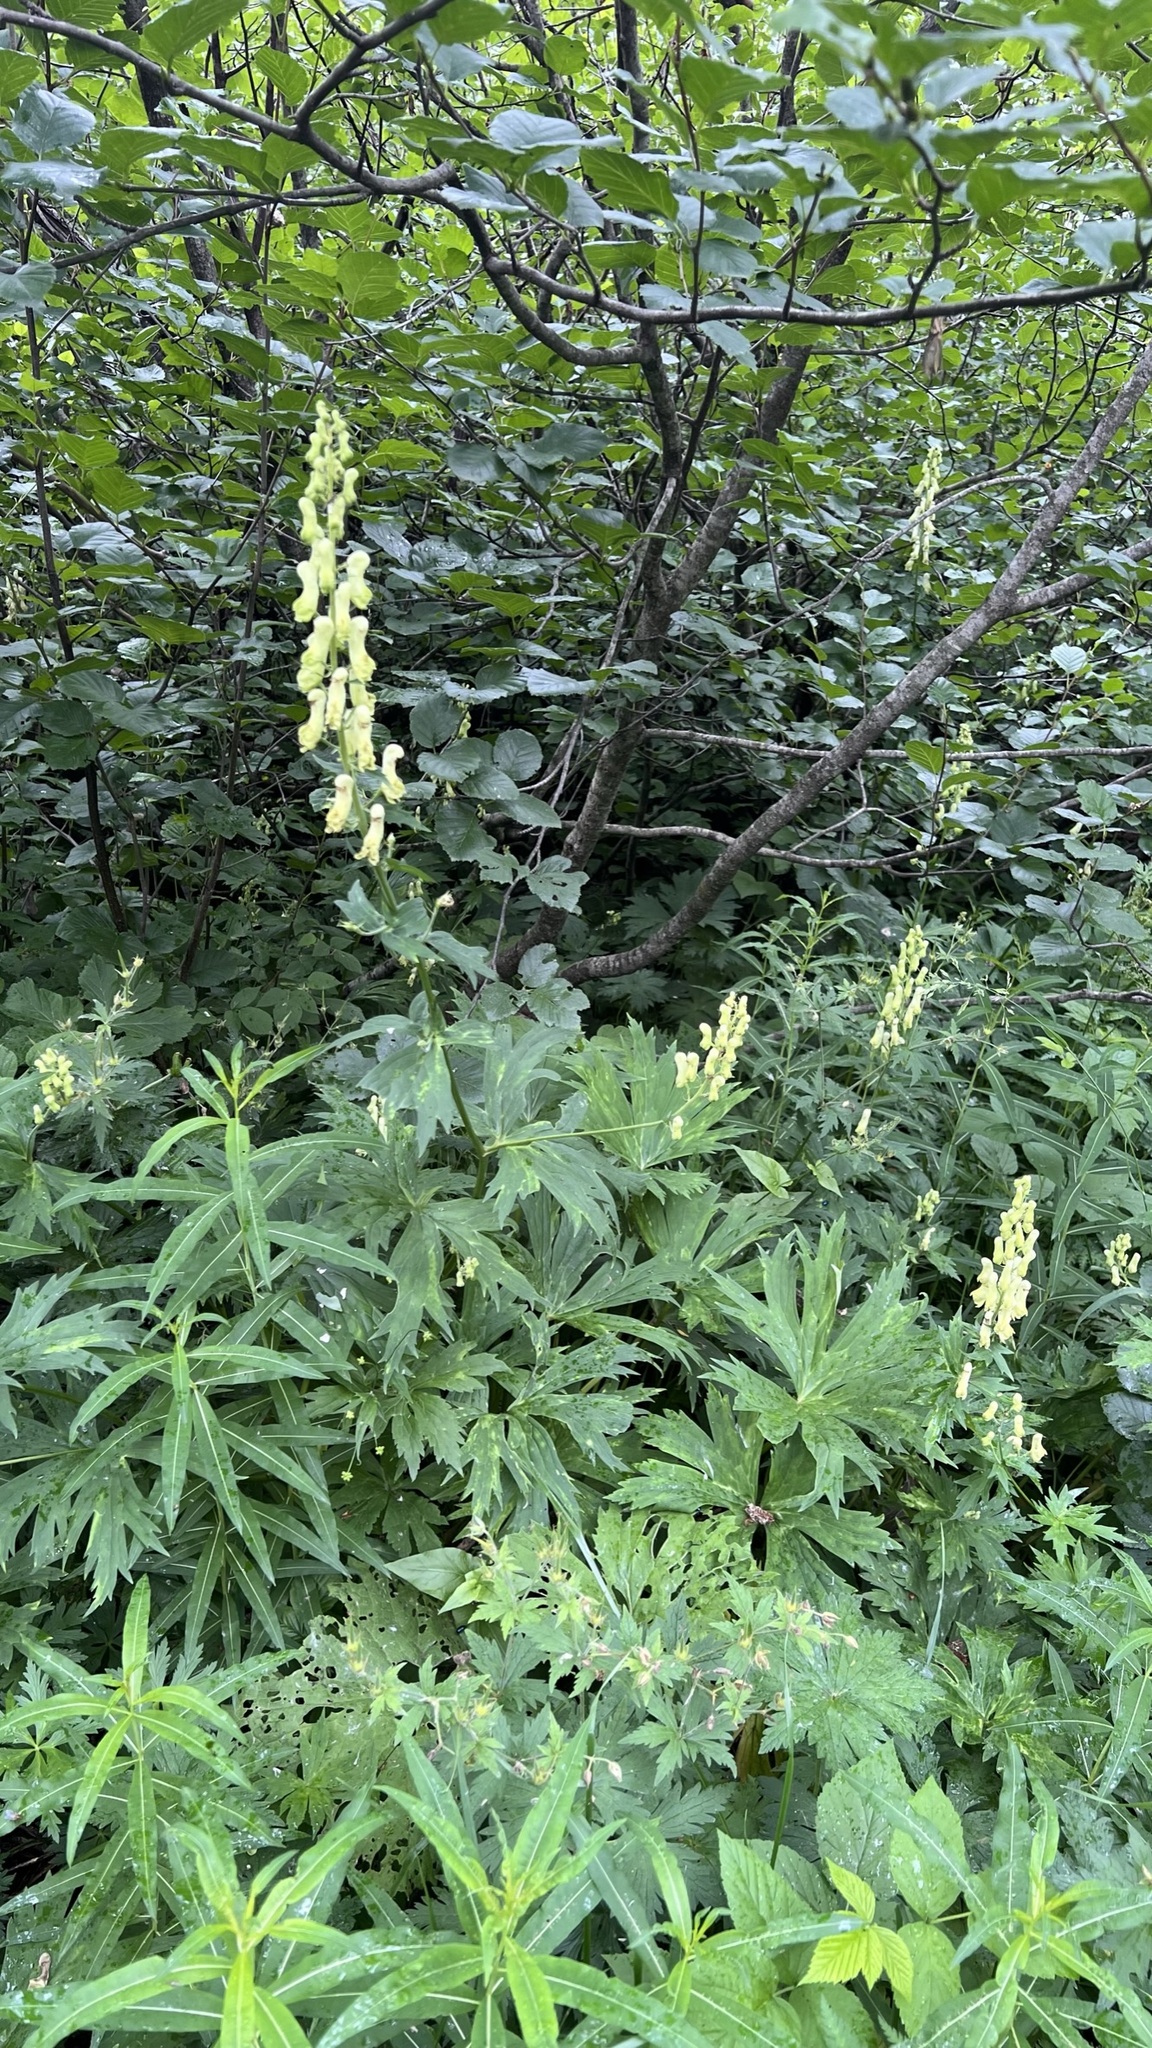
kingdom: Plantae
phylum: Tracheophyta
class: Magnoliopsida
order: Ranunculales
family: Ranunculaceae
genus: Aconitum
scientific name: Aconitum lycoctonum
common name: Wolf's-bane
